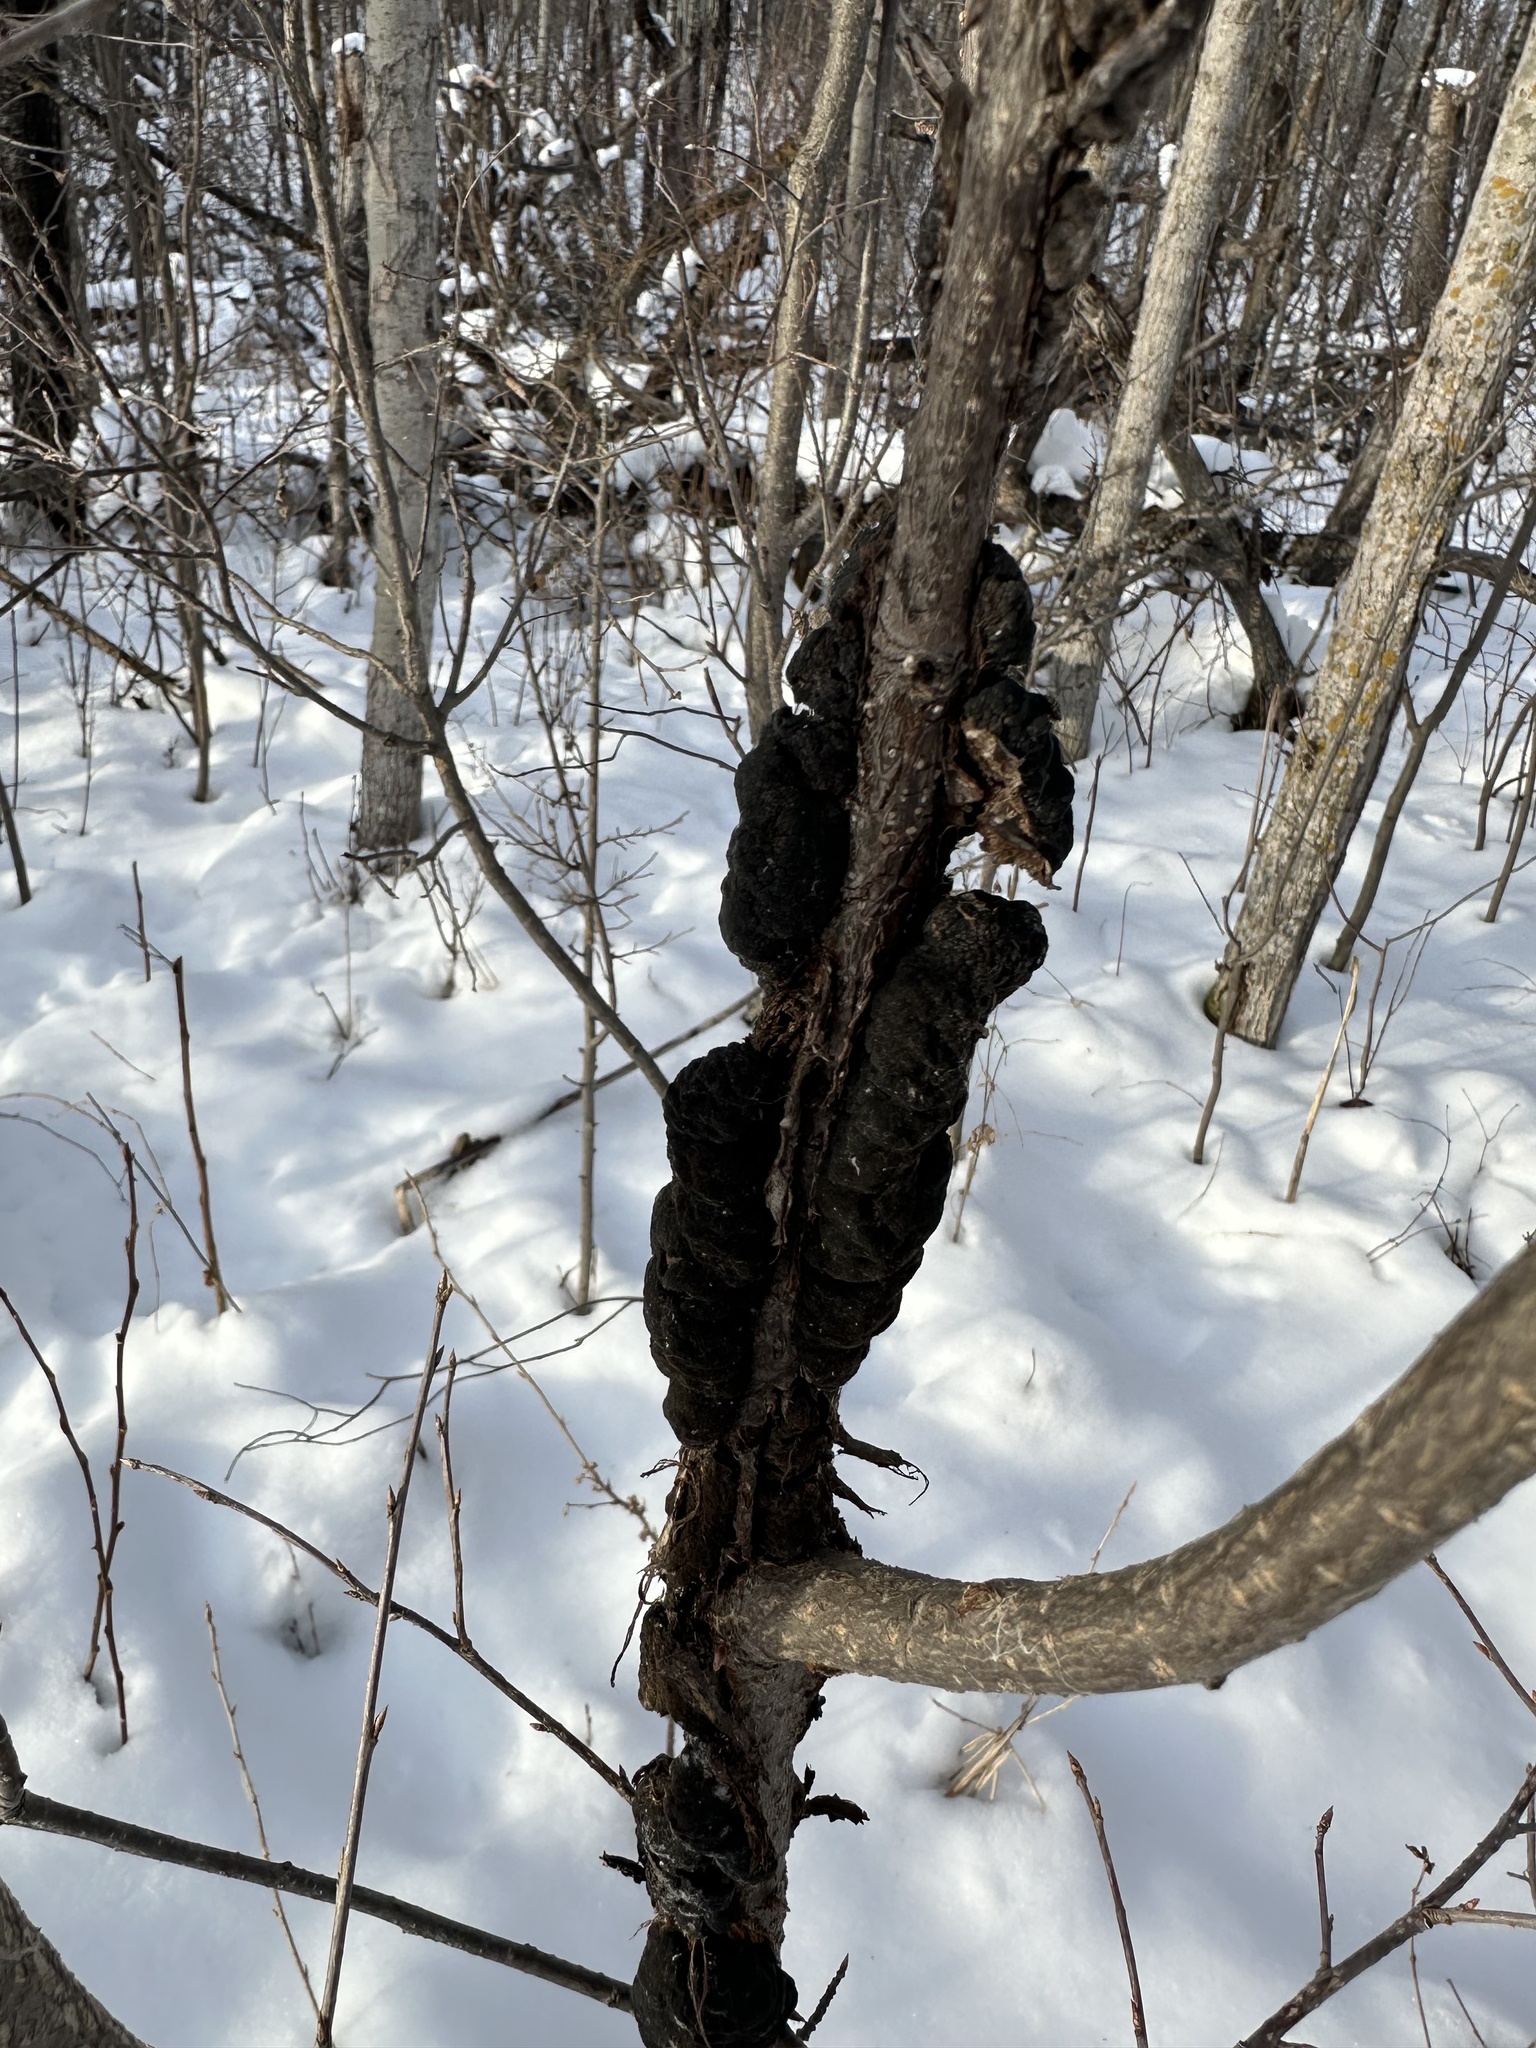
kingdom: Fungi
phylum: Ascomycota
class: Dothideomycetes
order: Venturiales
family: Venturiaceae
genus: Apiosporina
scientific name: Apiosporina morbosa
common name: Black knot
